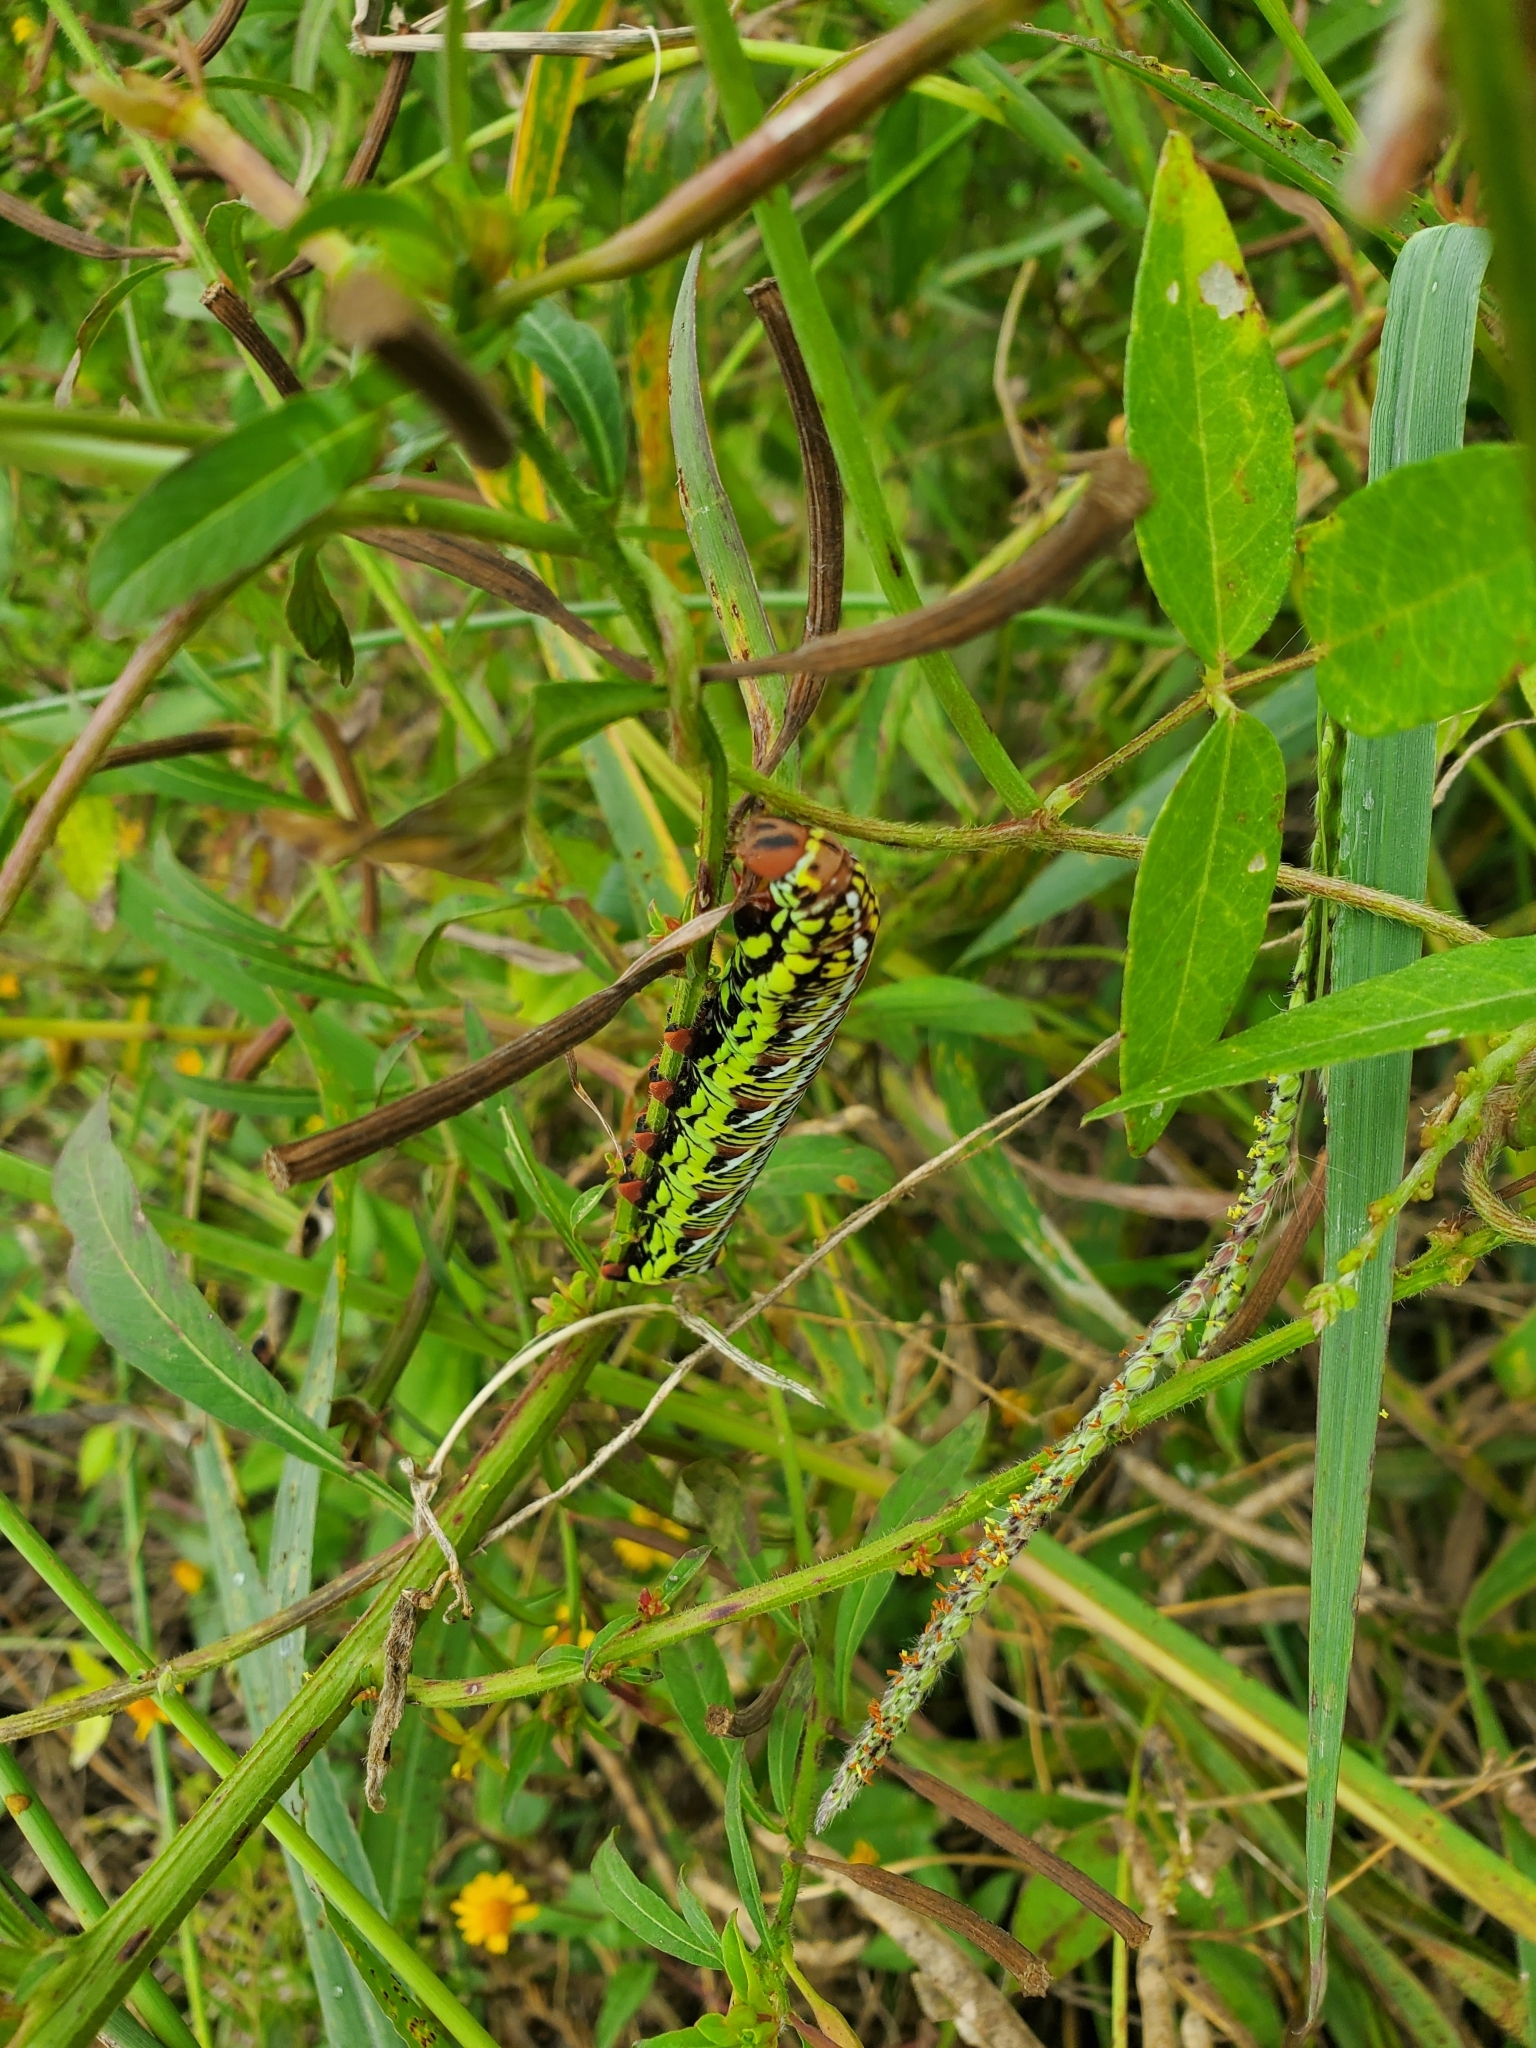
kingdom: Animalia
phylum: Arthropoda
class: Insecta
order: Lepidoptera
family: Sphingidae
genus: Eumorpha
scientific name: Eumorpha fasciatus
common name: Banded sphinx
